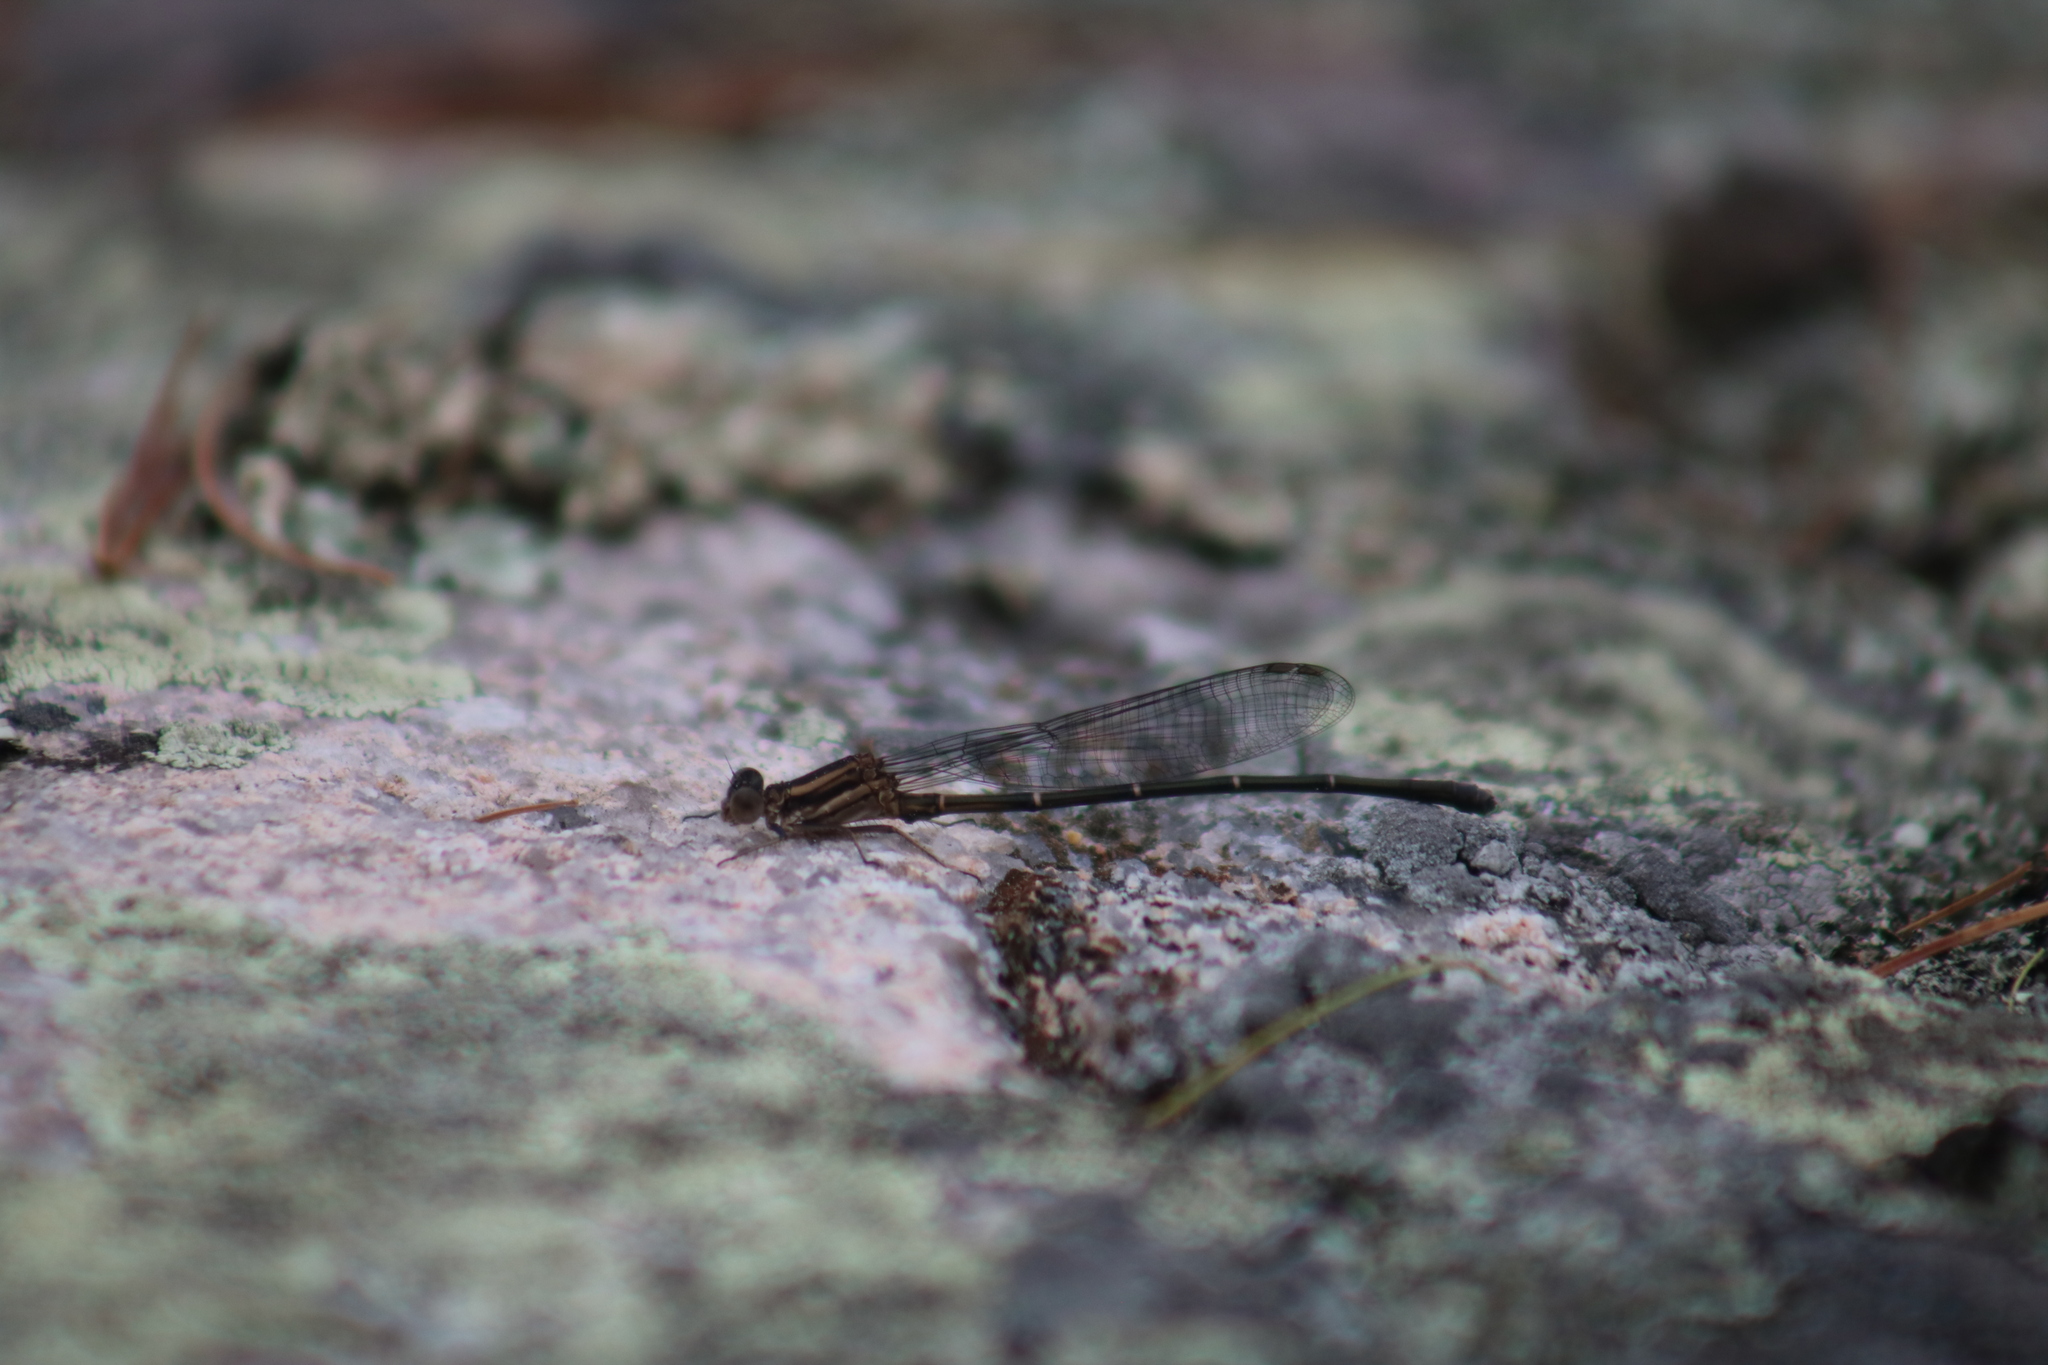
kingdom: Animalia
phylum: Arthropoda
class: Insecta
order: Odonata
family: Coenagrionidae
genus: Argia
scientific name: Argia moesta
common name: Powdered dancer
